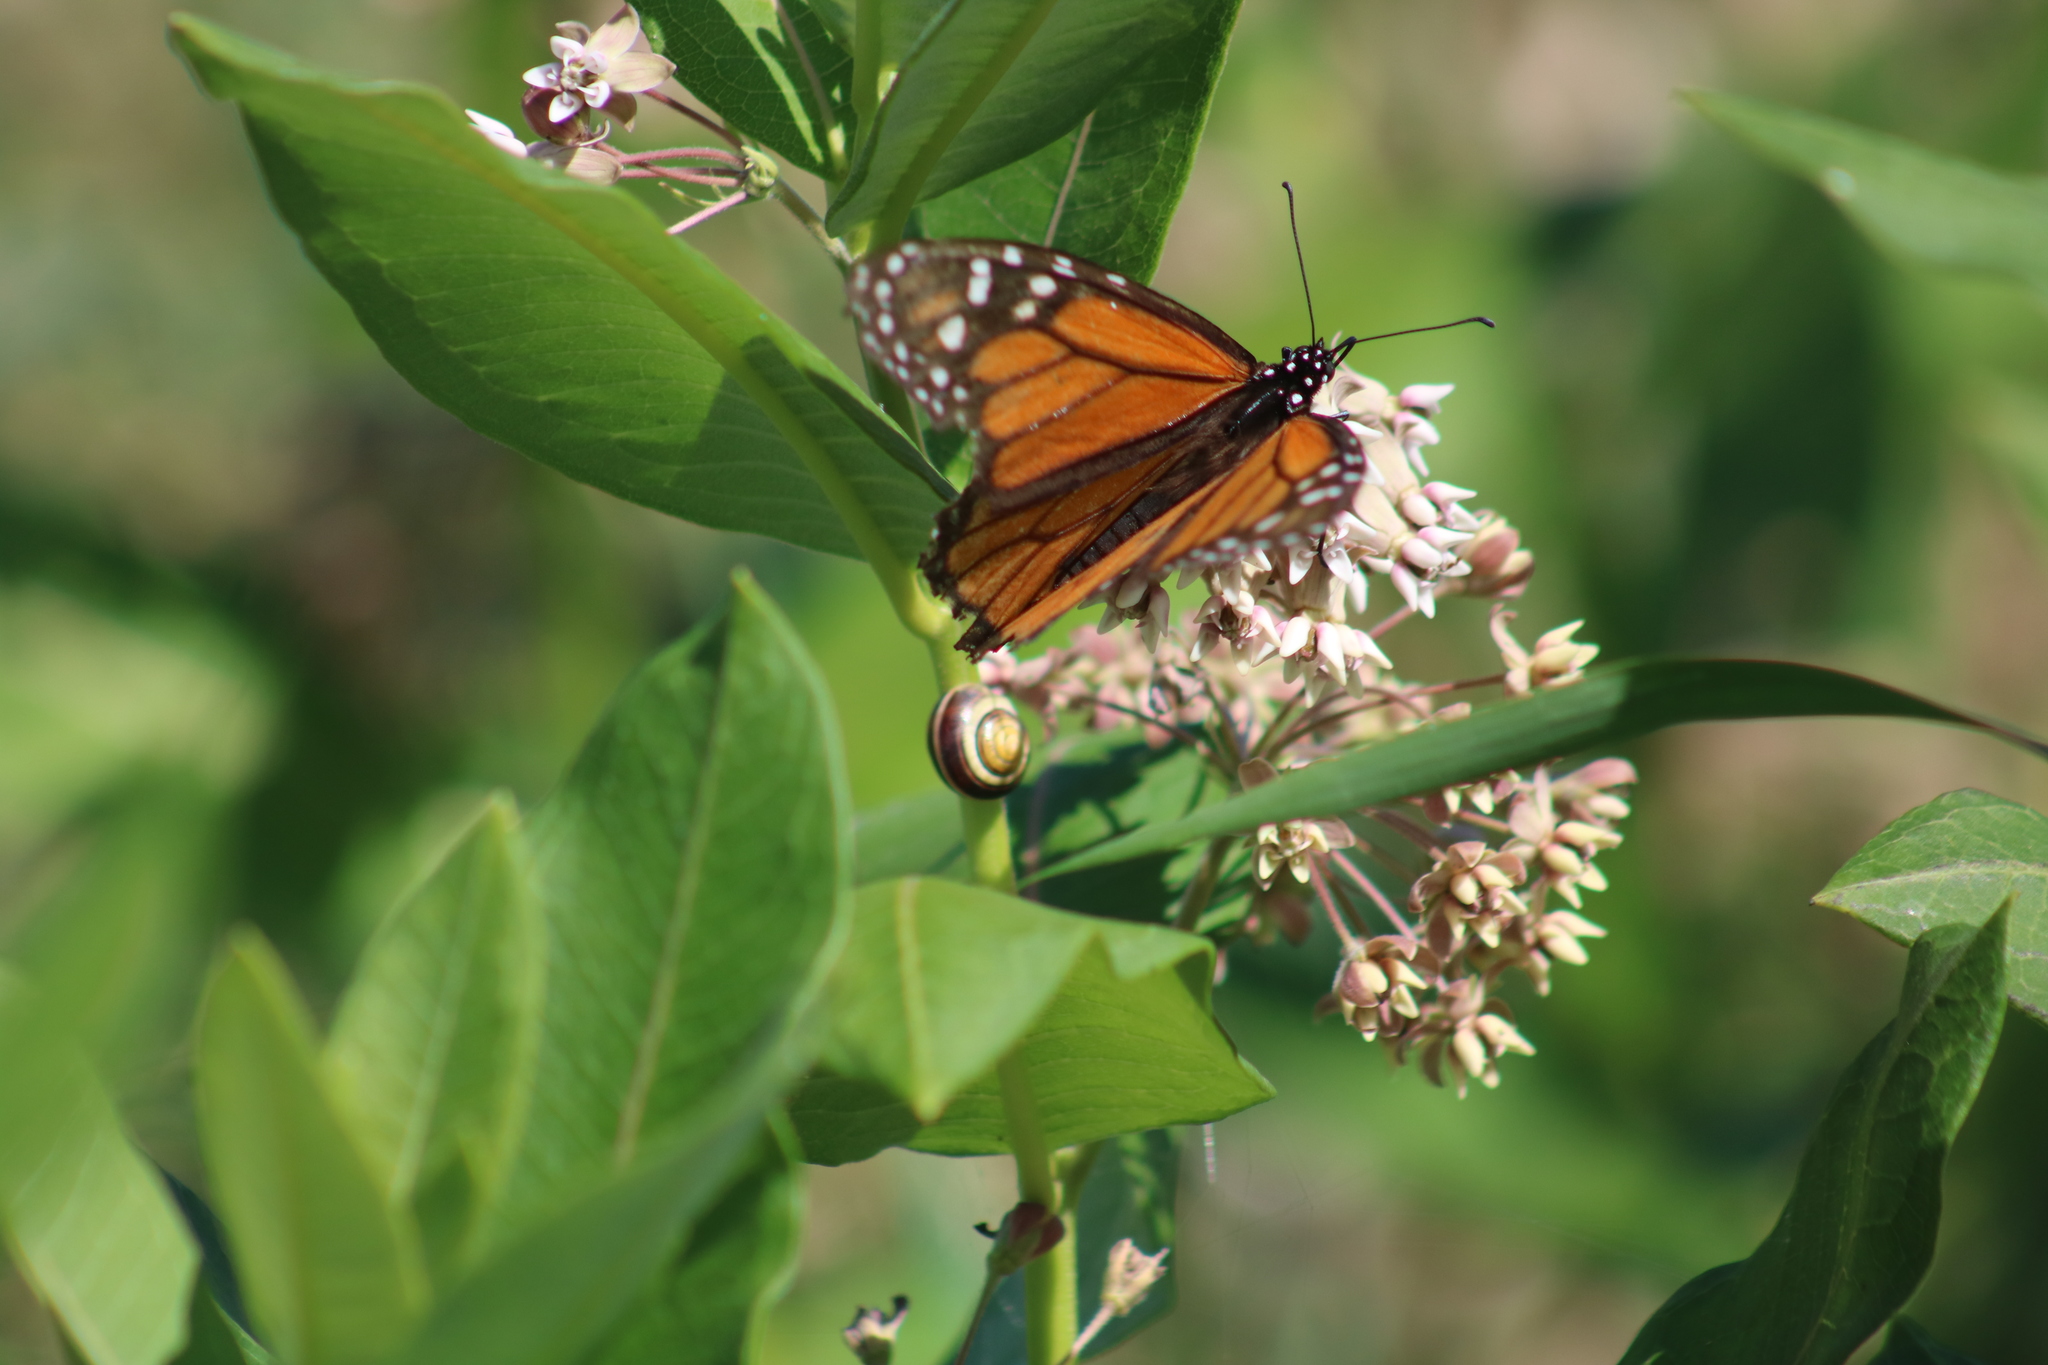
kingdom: Animalia
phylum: Arthropoda
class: Insecta
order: Lepidoptera
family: Nymphalidae
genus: Danaus
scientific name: Danaus plexippus
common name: Monarch
